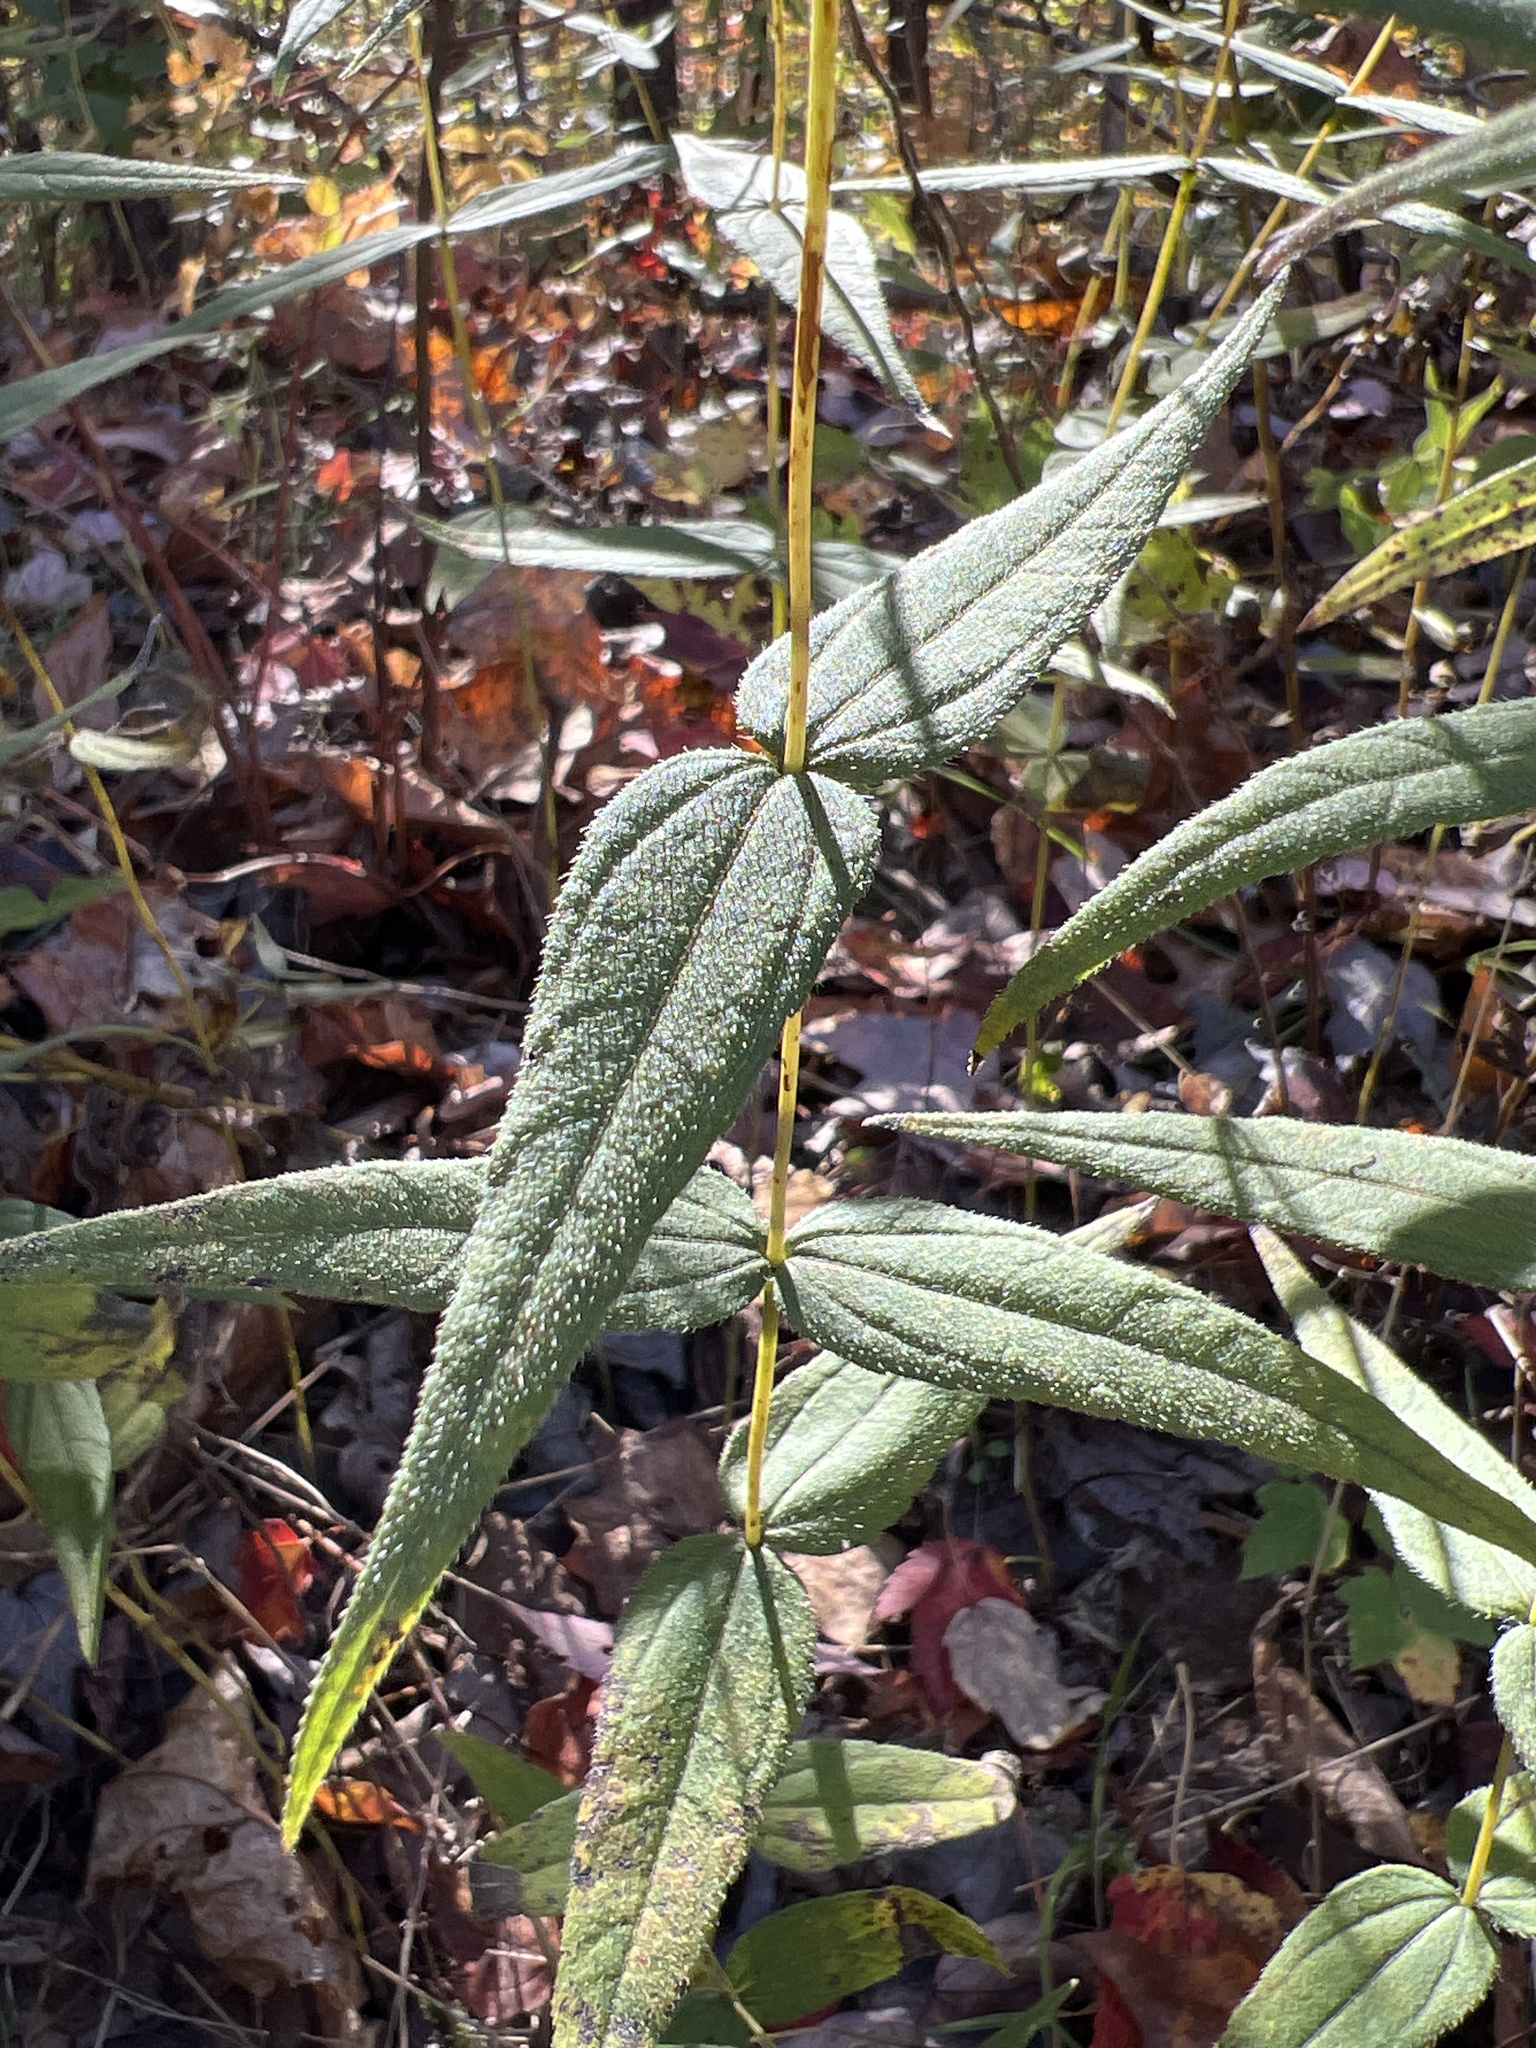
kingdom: Plantae
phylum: Tracheophyta
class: Magnoliopsida
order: Asterales
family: Asteraceae
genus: Helianthus
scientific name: Helianthus divaricatus
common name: Divergent sunflower
